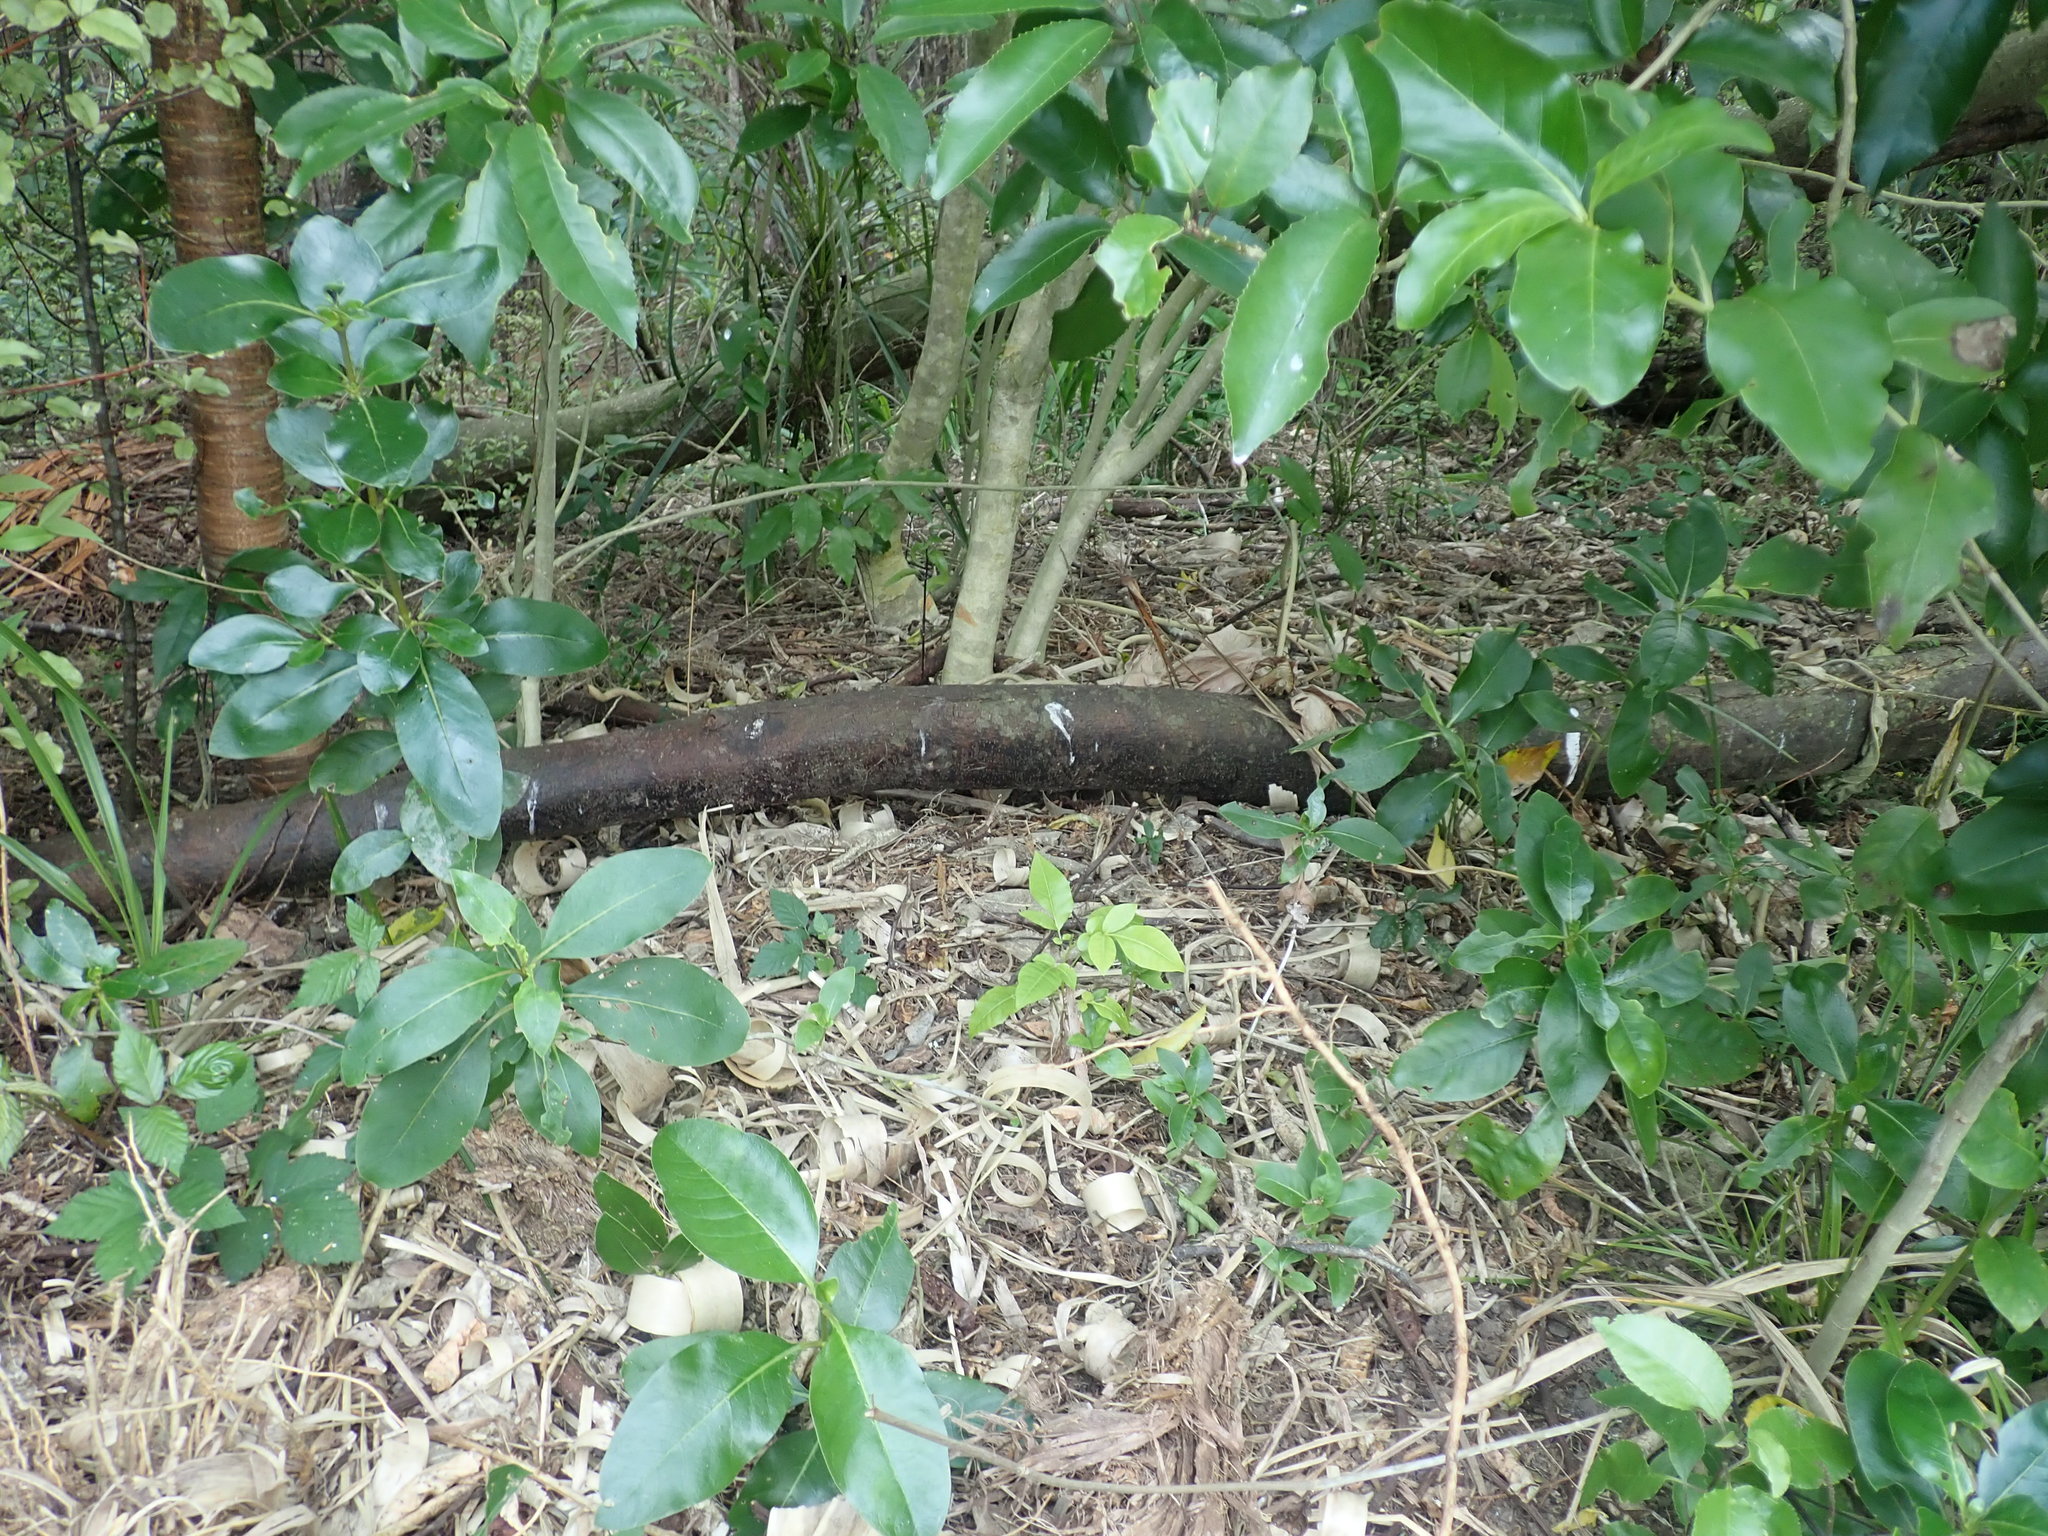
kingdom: Plantae
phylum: Tracheophyta
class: Magnoliopsida
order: Sapindales
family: Meliaceae
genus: Didymocheton
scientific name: Didymocheton spectabilis
